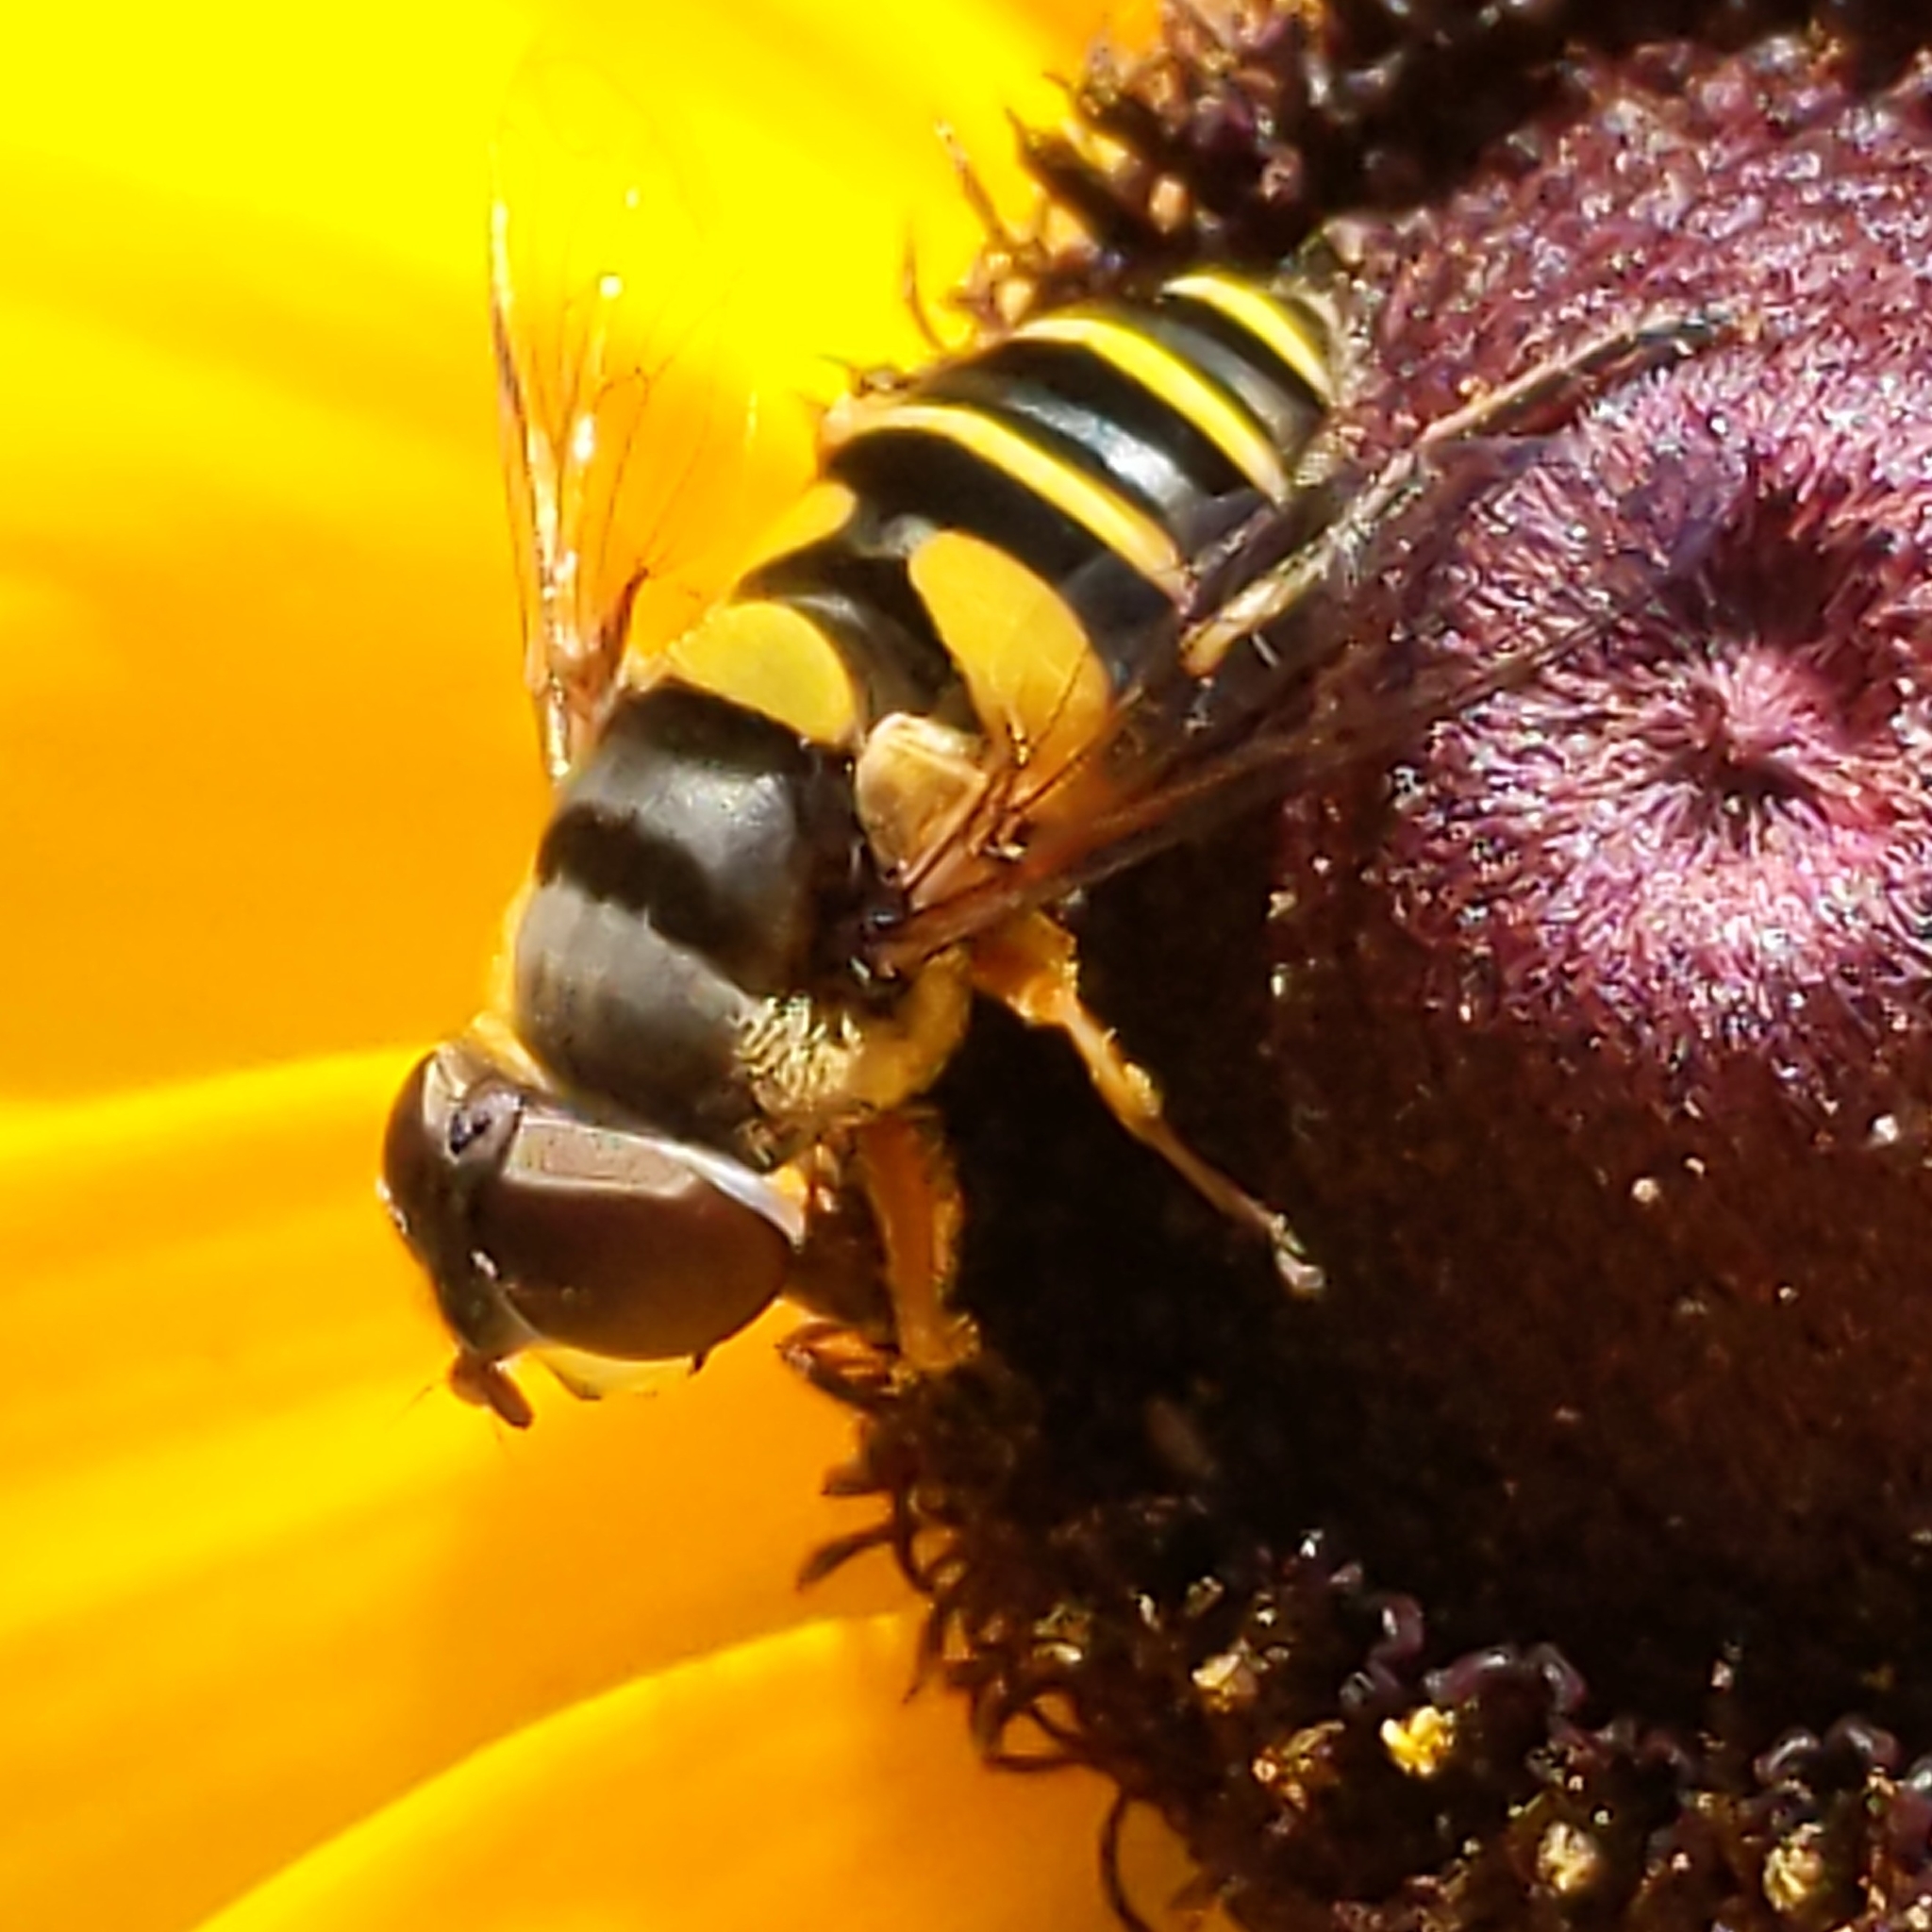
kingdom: Animalia
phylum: Arthropoda
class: Insecta
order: Diptera
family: Syrphidae
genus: Eristalis
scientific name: Eristalis transversa
